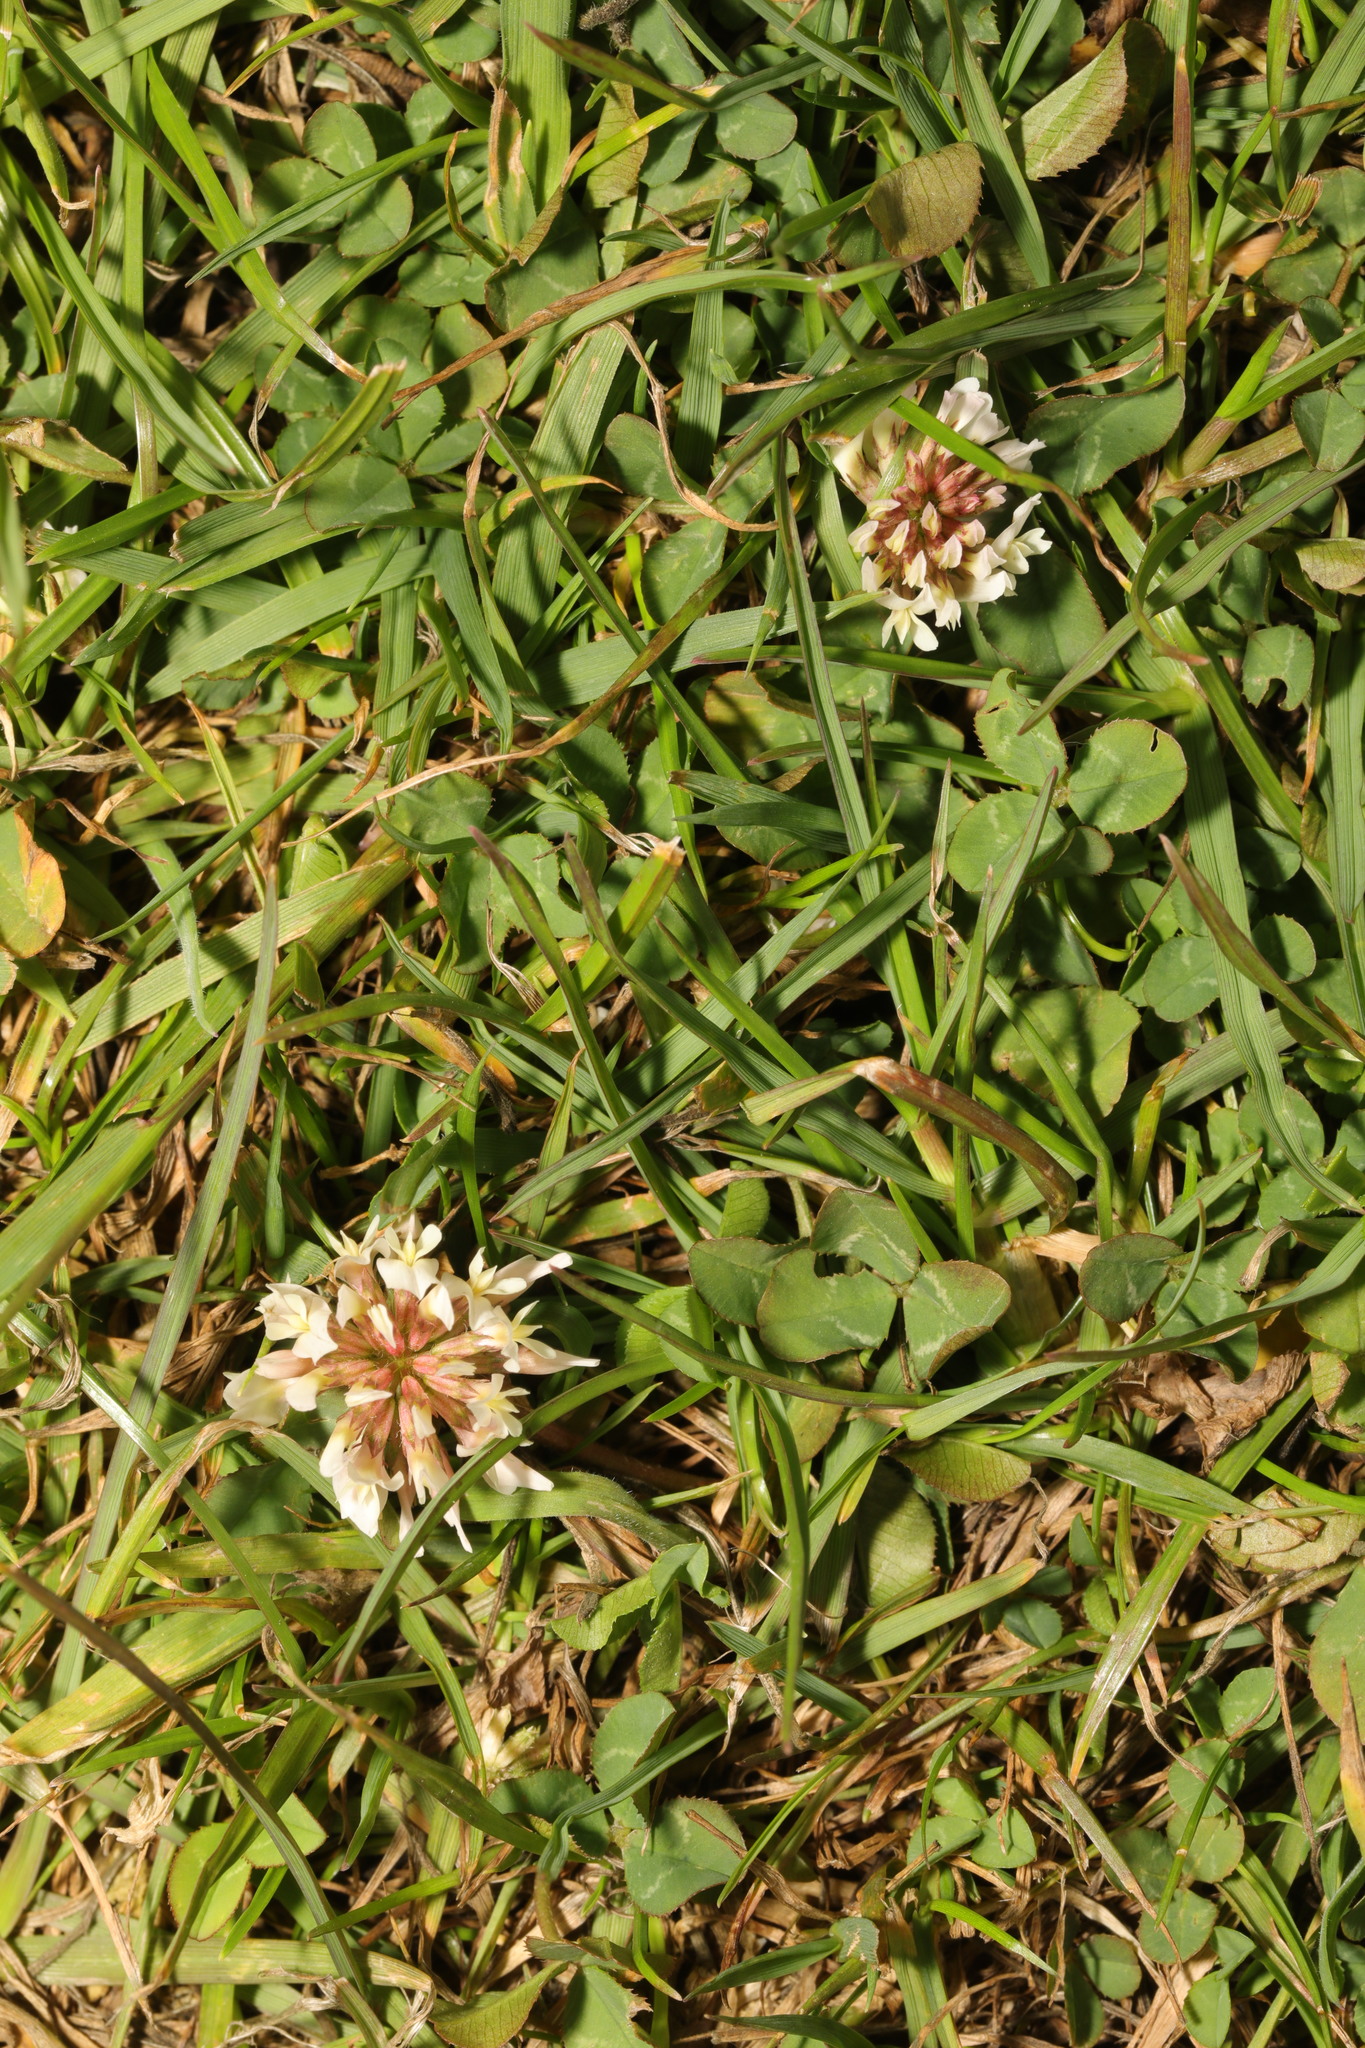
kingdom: Plantae
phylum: Tracheophyta
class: Magnoliopsida
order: Fabales
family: Fabaceae
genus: Trifolium
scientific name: Trifolium repens
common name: White clover
